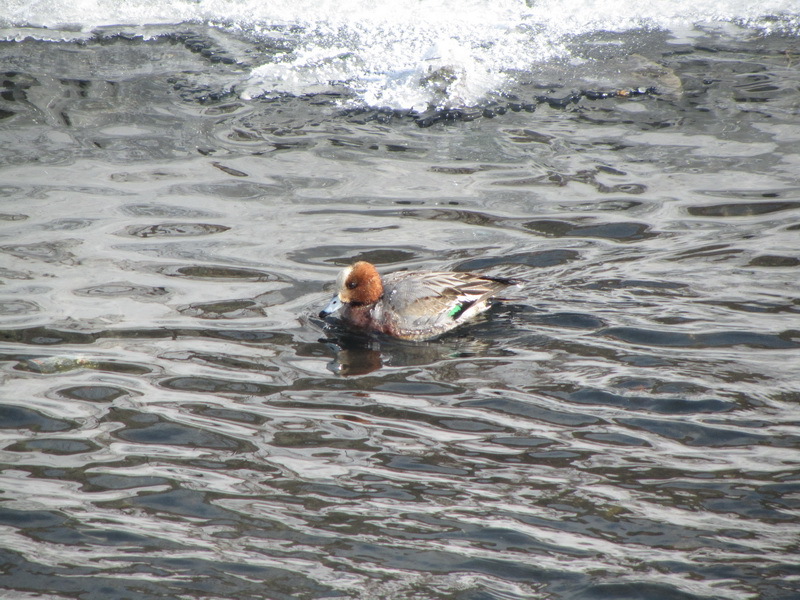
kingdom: Animalia
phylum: Chordata
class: Aves
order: Anseriformes
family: Anatidae
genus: Mareca
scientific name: Mareca penelope
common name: Eurasian wigeon
